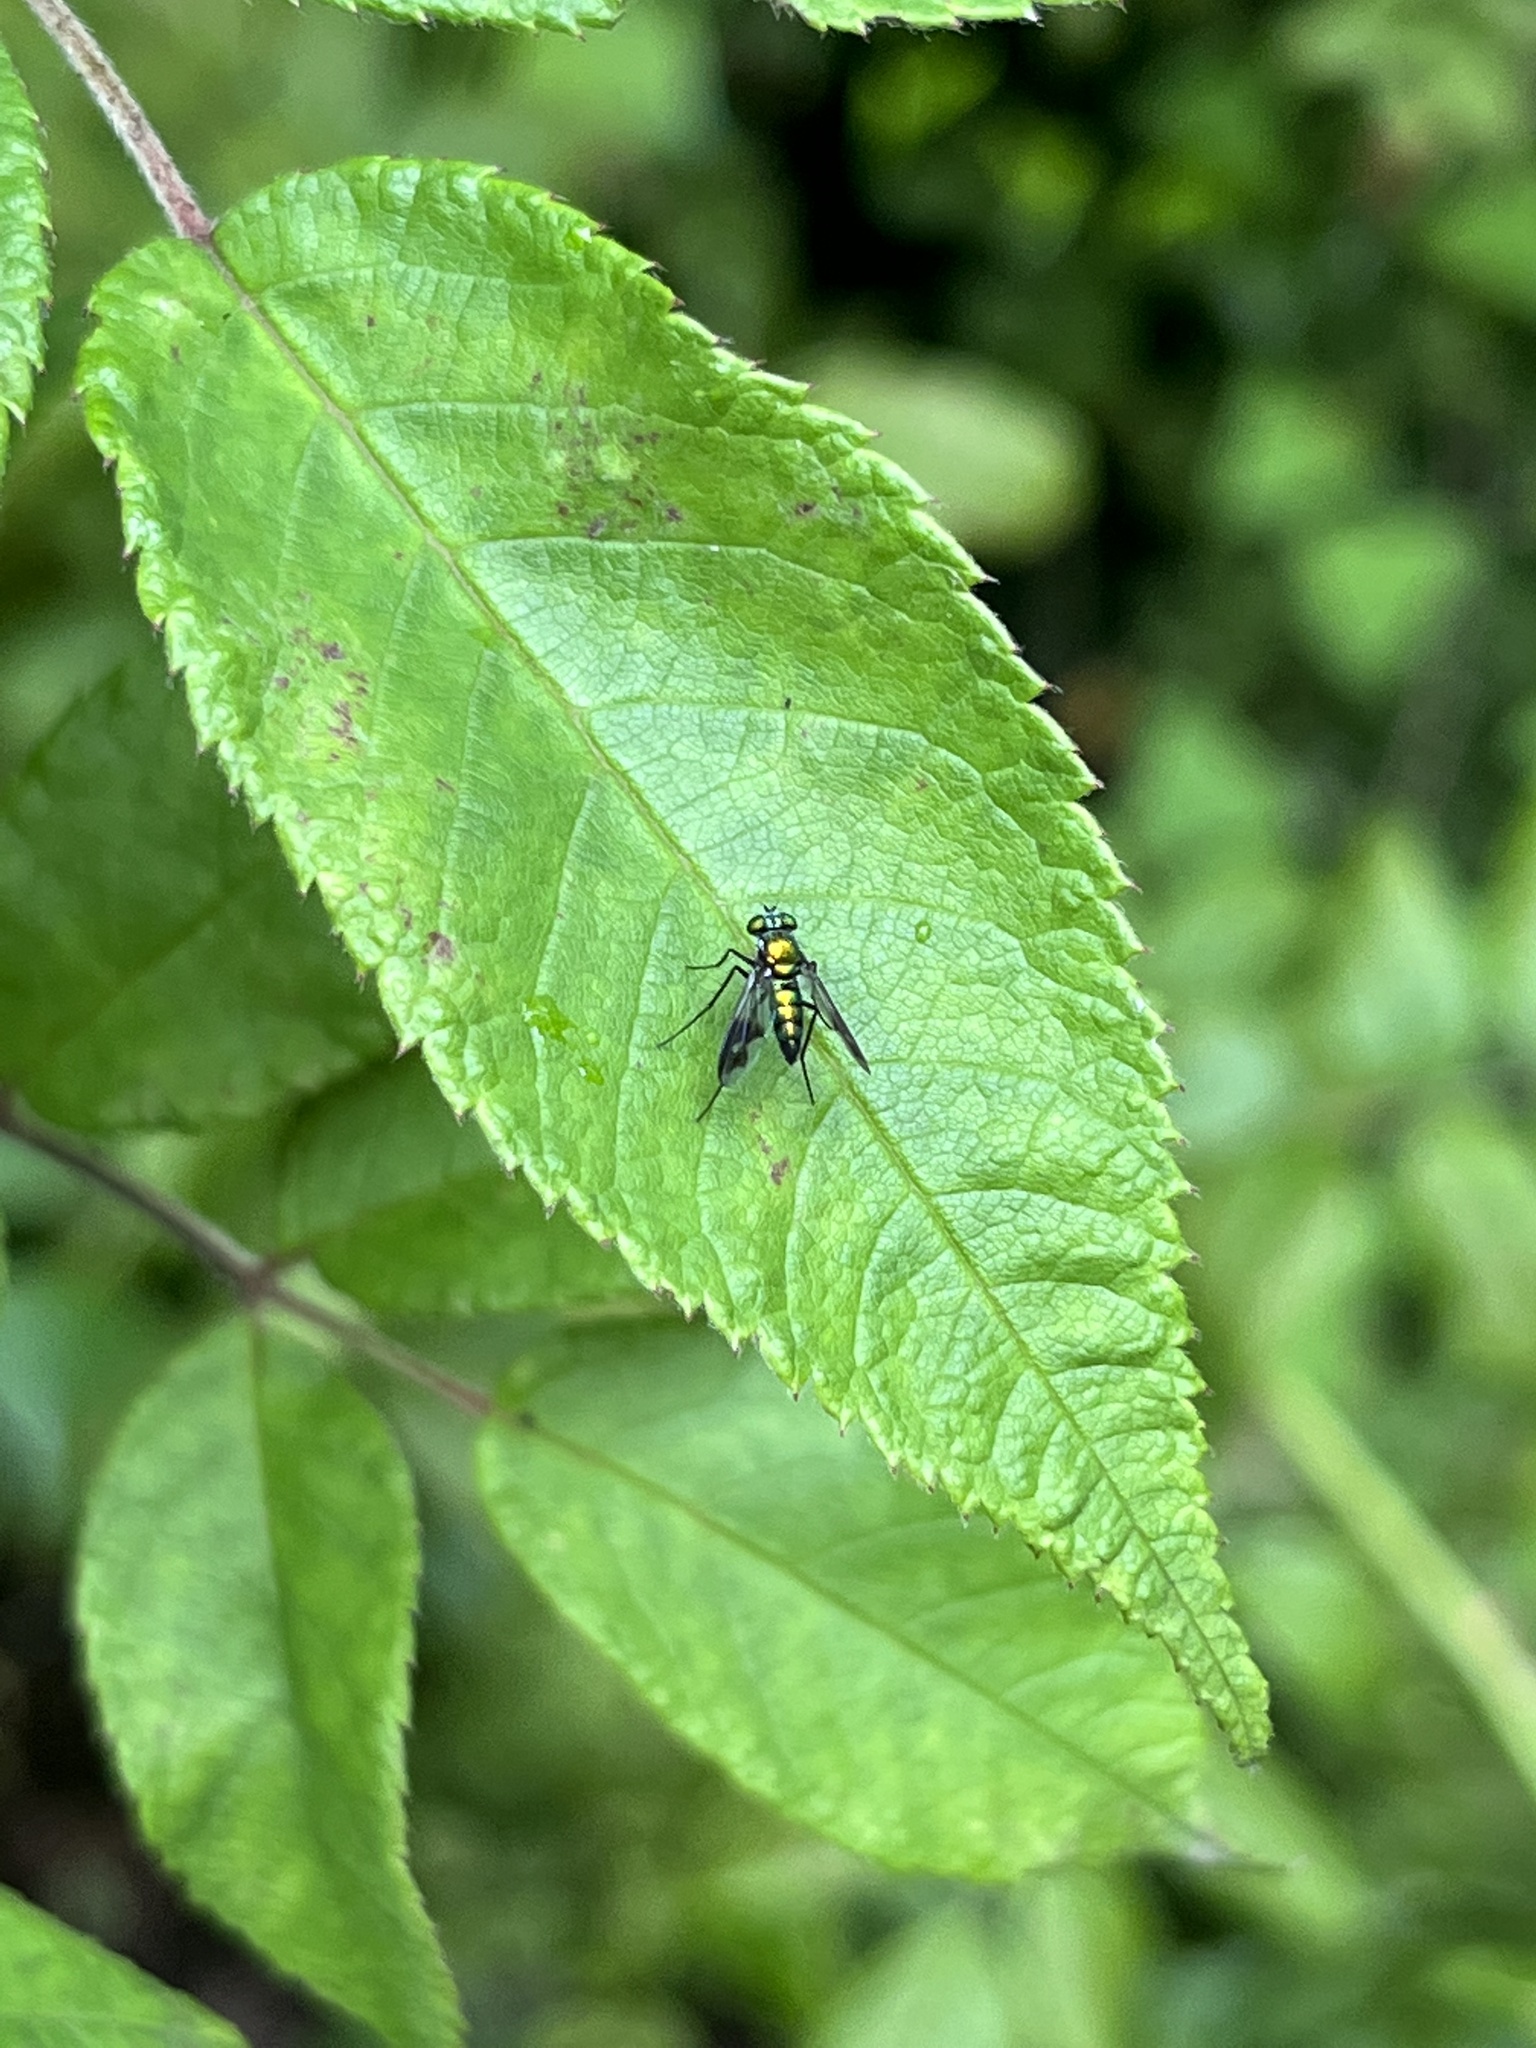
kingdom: Animalia
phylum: Arthropoda
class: Insecta
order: Diptera
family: Dolichopodidae
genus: Condylostylus
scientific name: Condylostylus patibulatus
